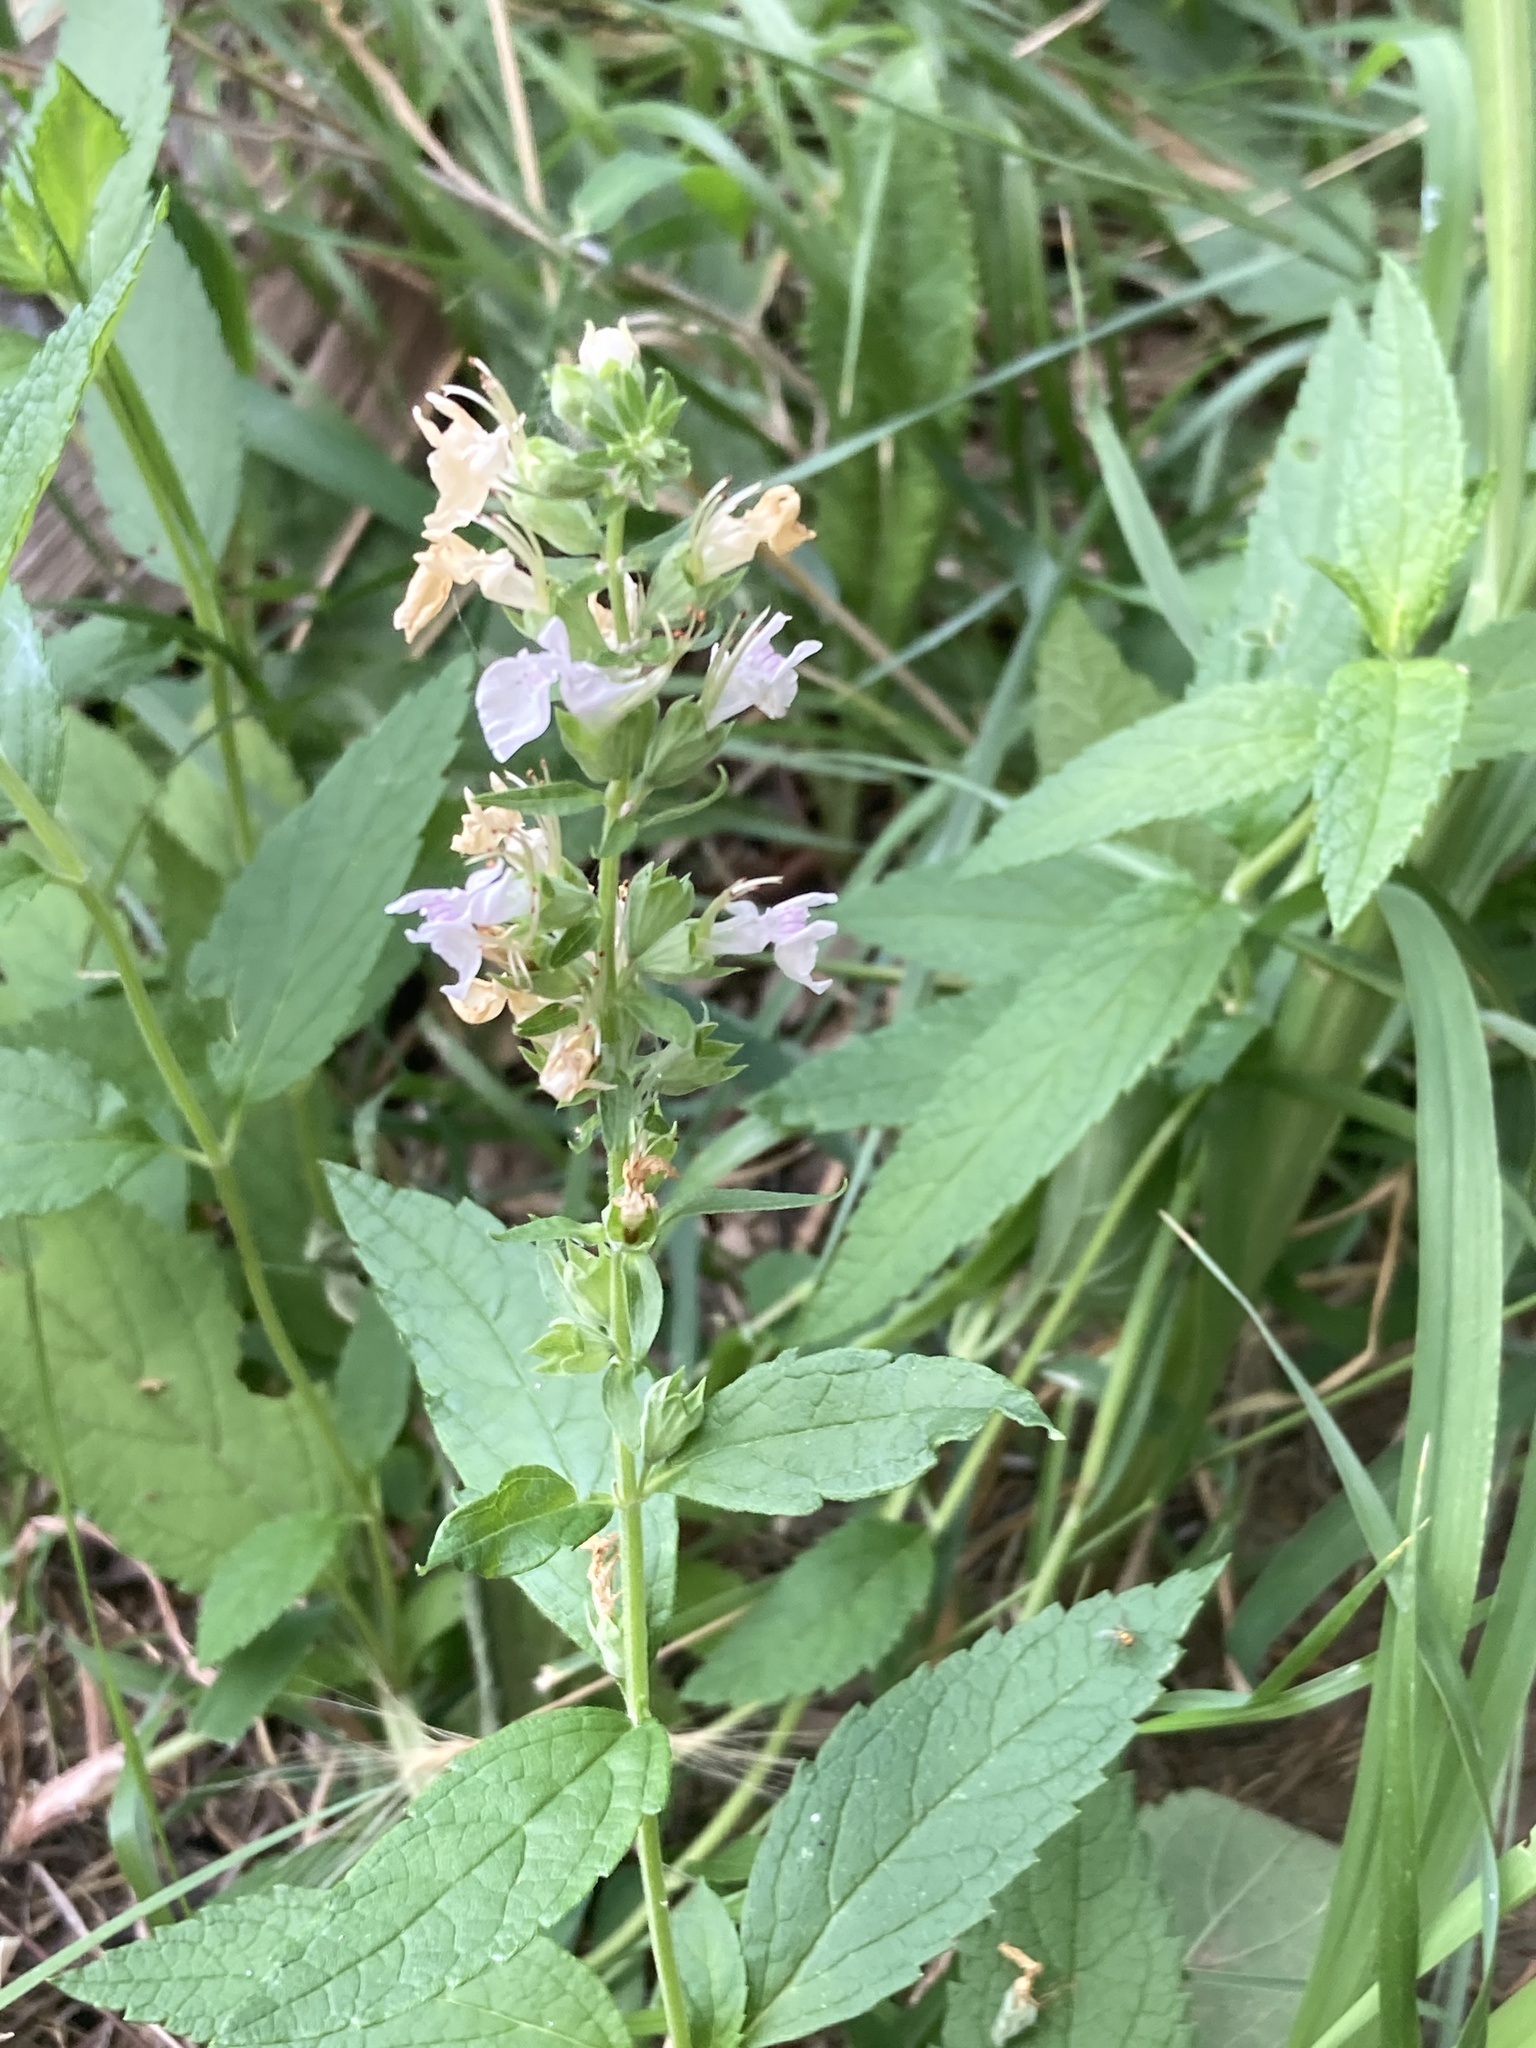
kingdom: Plantae
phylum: Tracheophyta
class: Magnoliopsida
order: Lamiales
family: Lamiaceae
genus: Teucrium
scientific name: Teucrium canadense
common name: American germander
